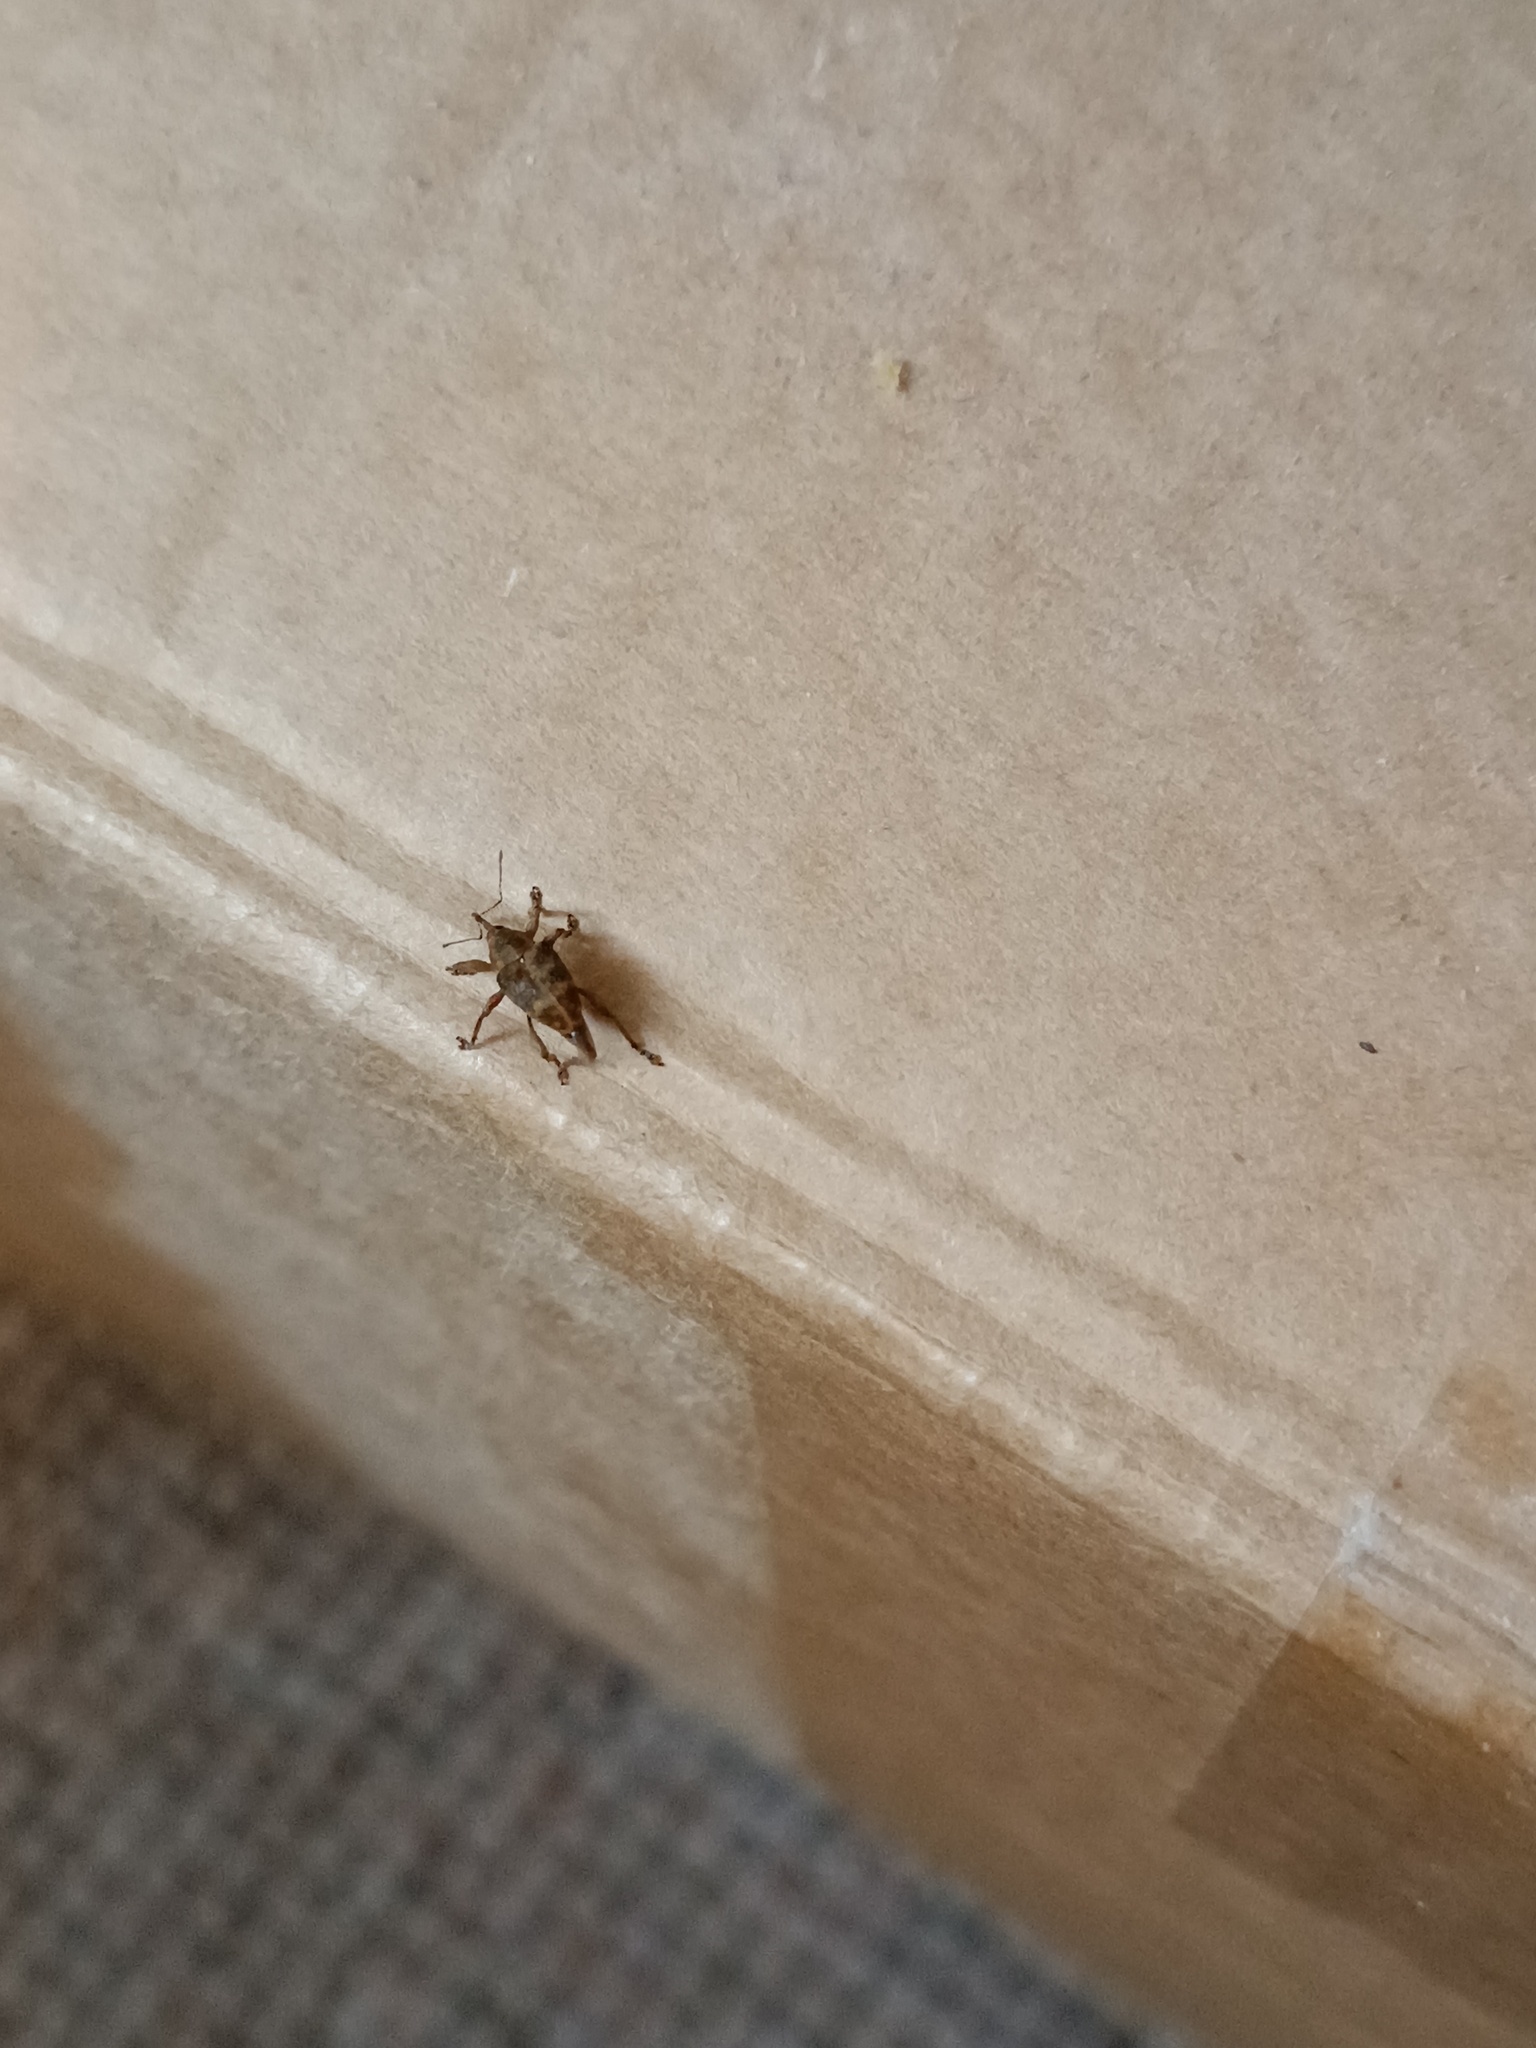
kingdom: Animalia
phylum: Arthropoda
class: Insecta
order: Coleoptera
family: Curculionidae
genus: Curculio
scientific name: Curculio venosus
